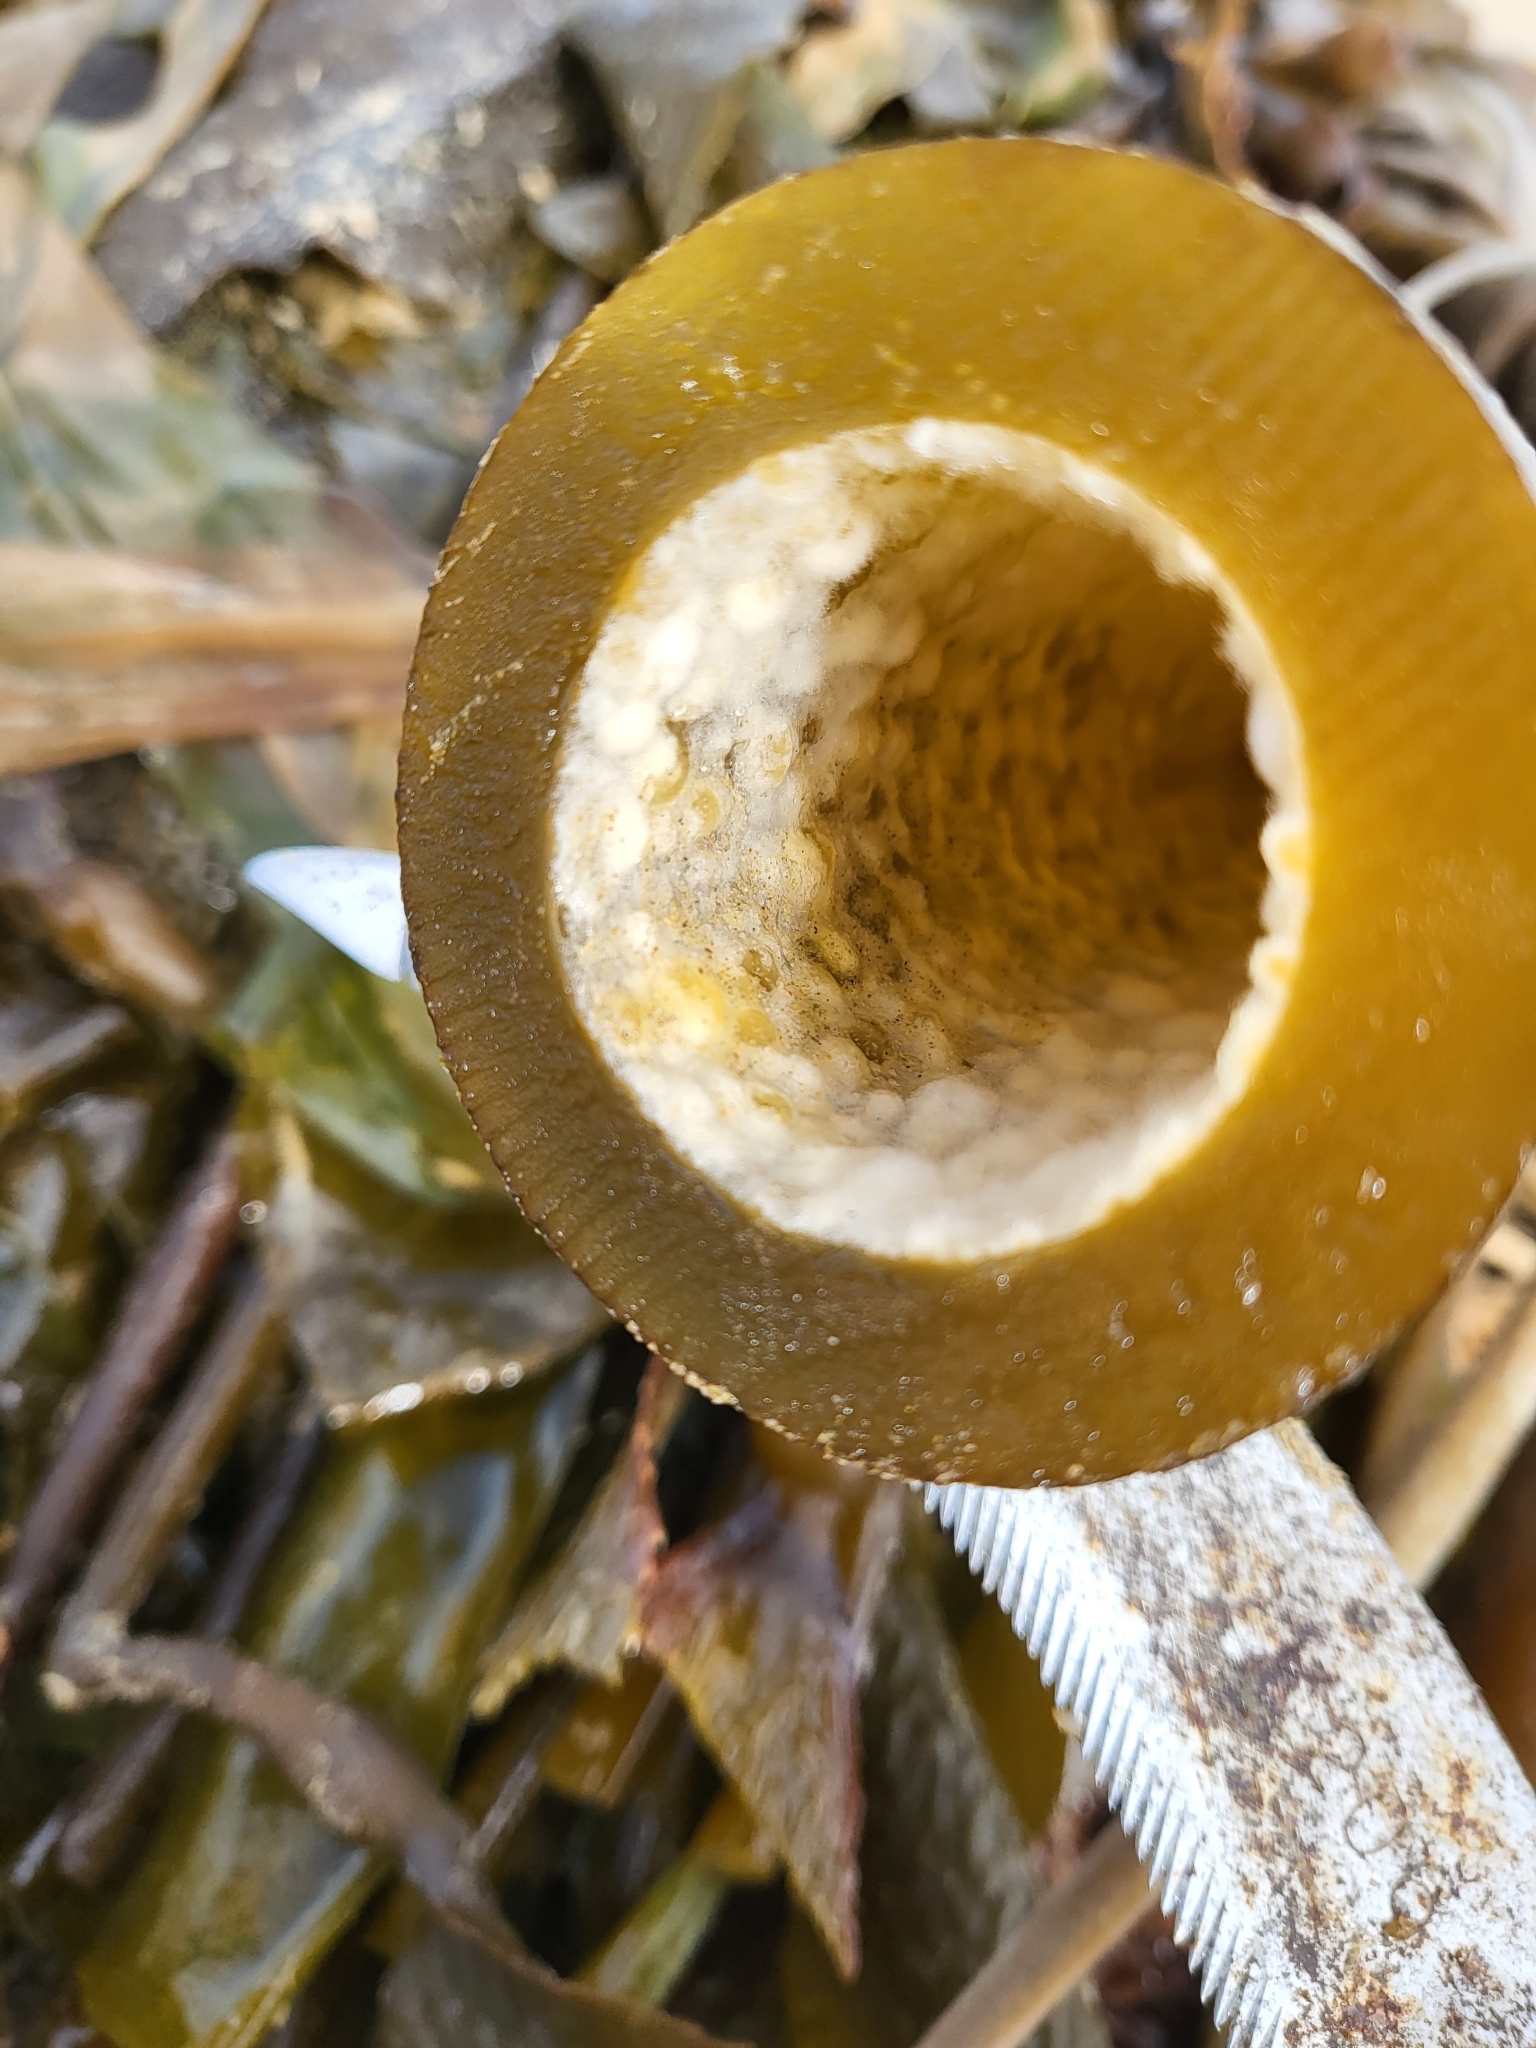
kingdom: Chromista
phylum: Ochrophyta
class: Phaeophyceae
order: Laminariales
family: Laminariaceae
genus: Nereocystis
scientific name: Nereocystis luetkeana
